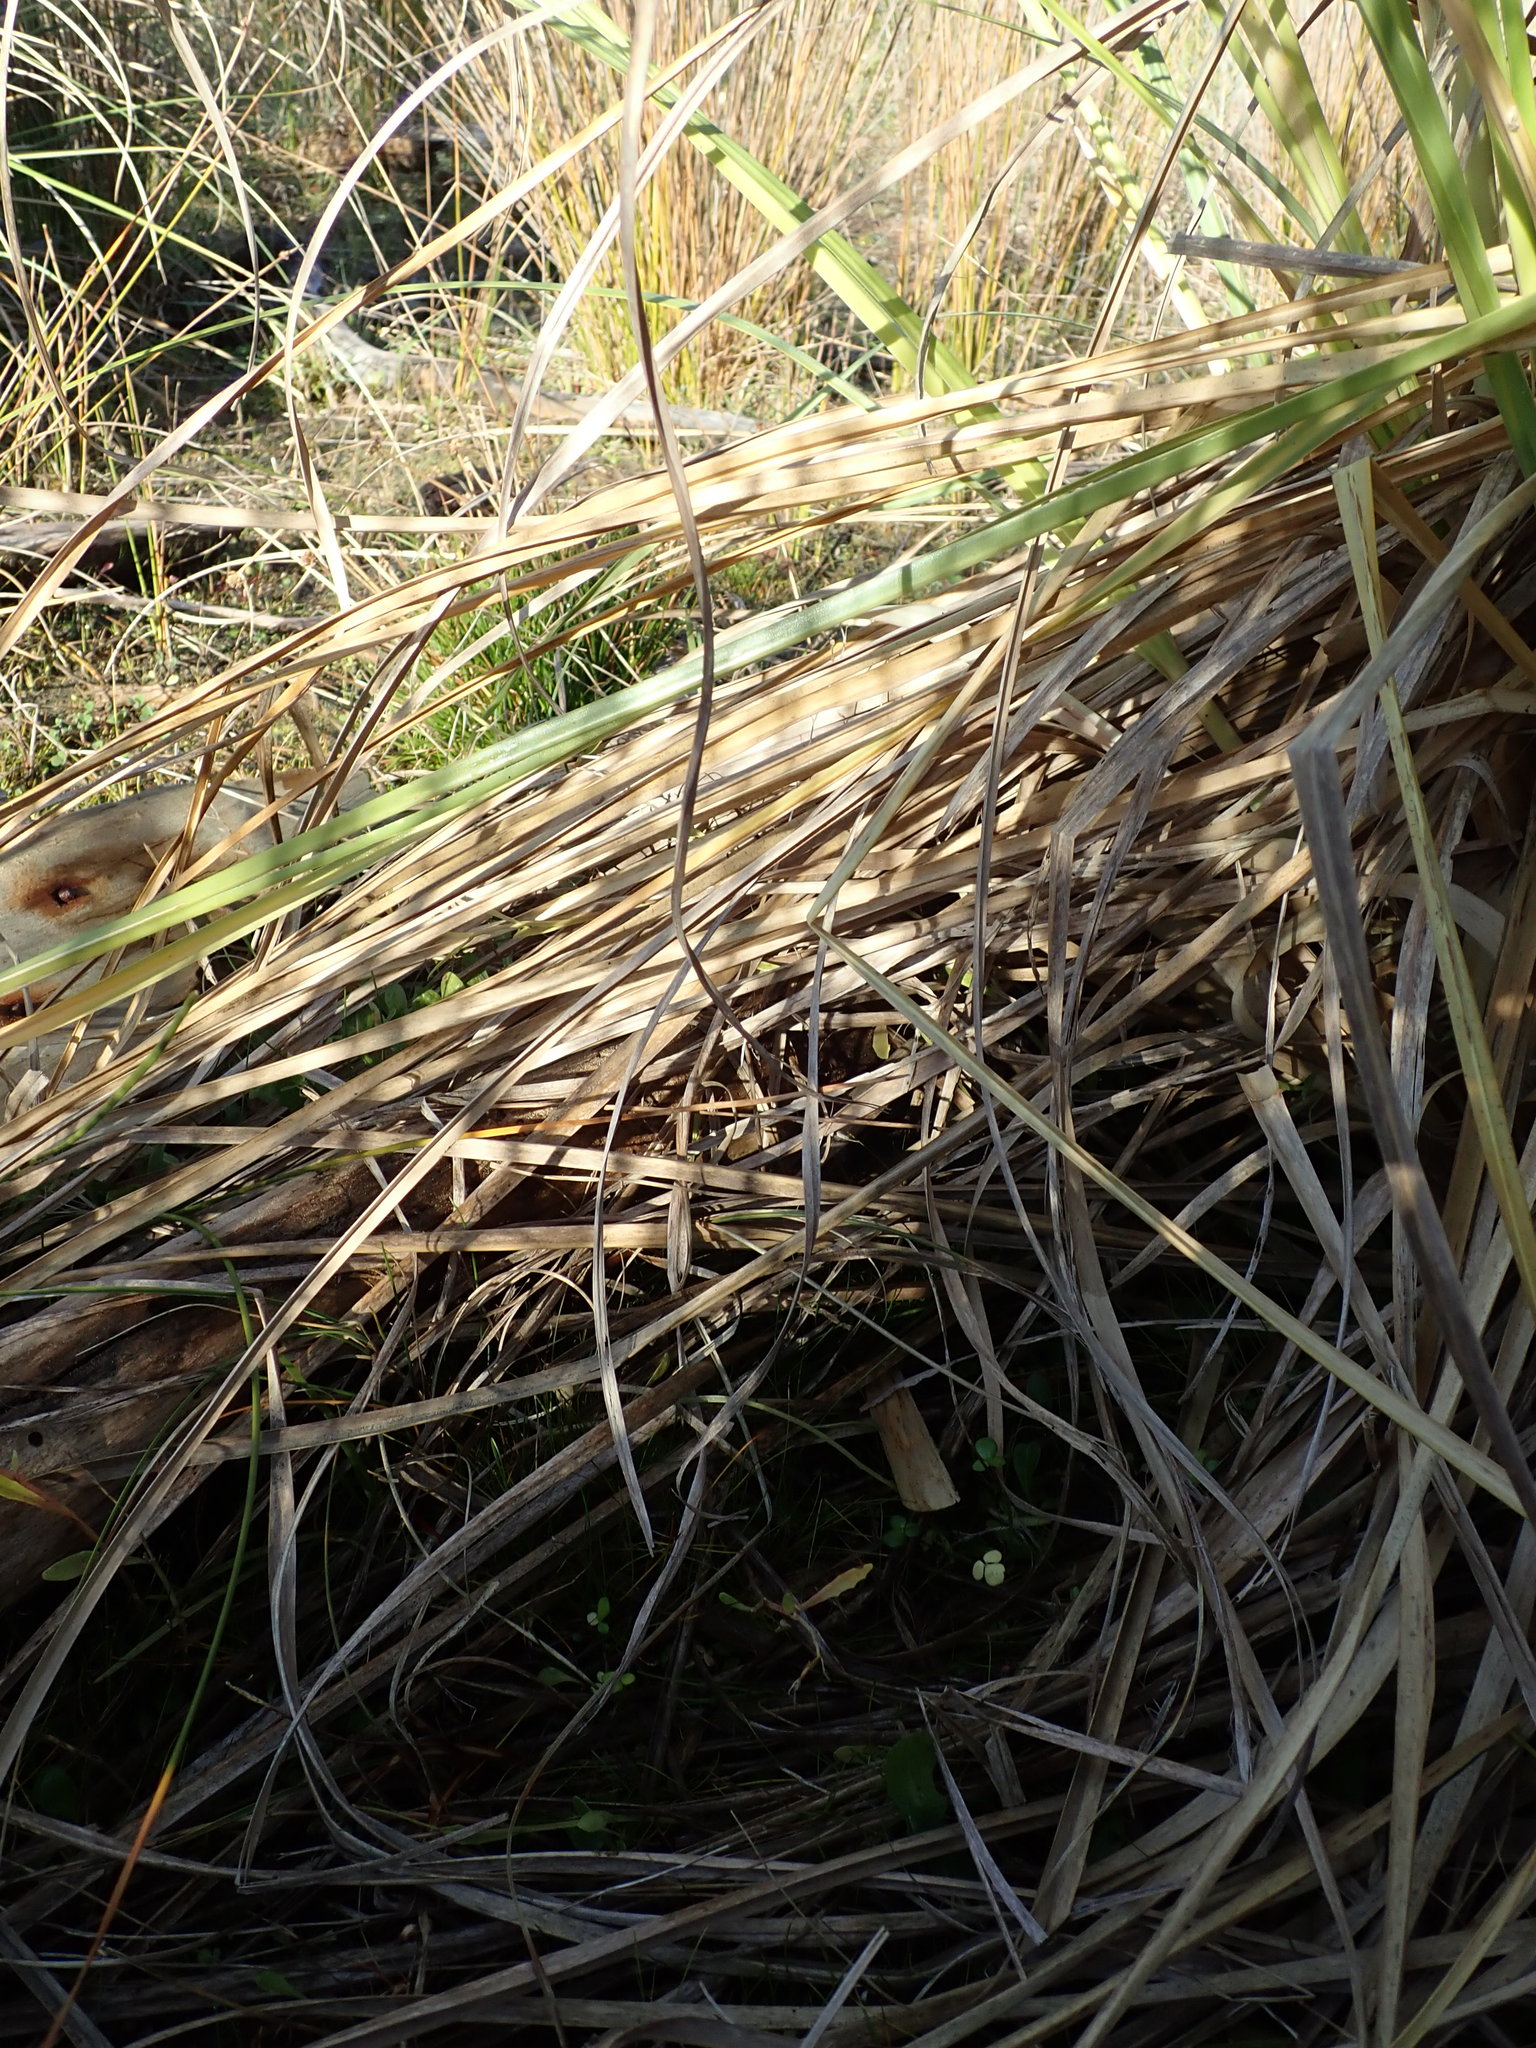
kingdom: Plantae
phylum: Tracheophyta
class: Magnoliopsida
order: Ranunculales
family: Ranunculaceae
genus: Ranunculus
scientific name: Ranunculus acaulis
